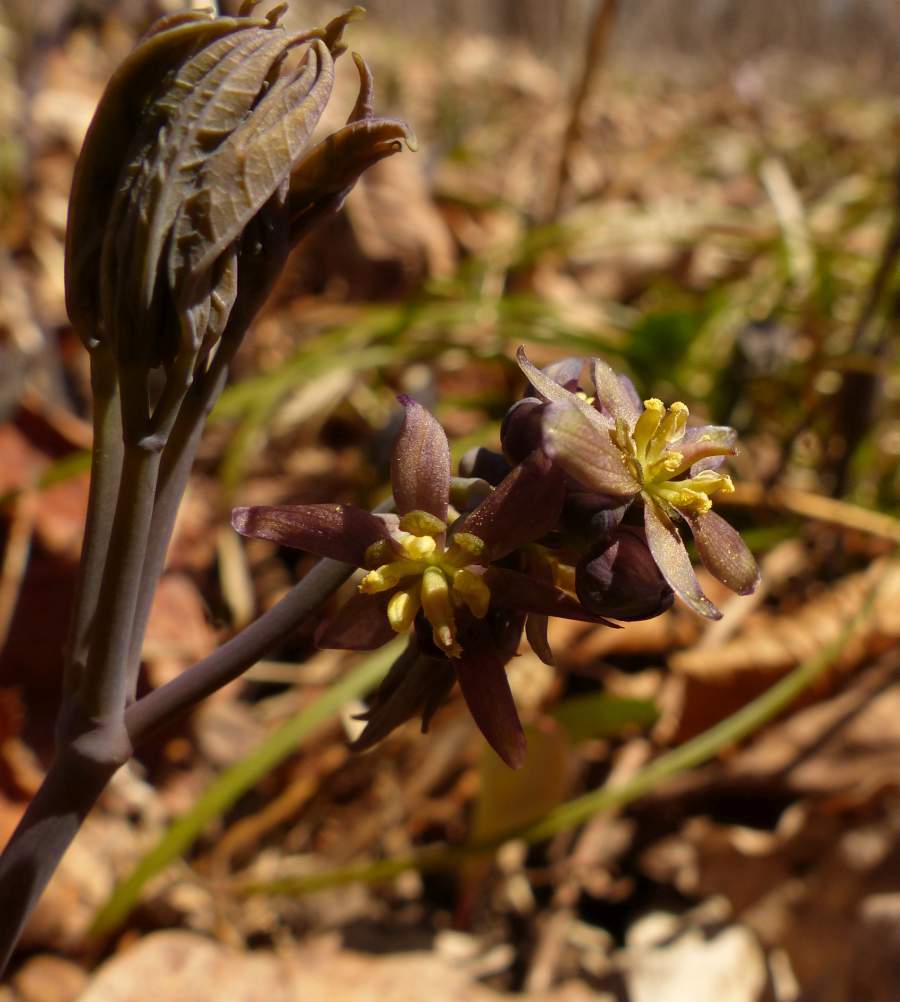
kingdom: Plantae
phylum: Tracheophyta
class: Magnoliopsida
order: Ranunculales
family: Berberidaceae
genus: Caulophyllum
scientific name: Caulophyllum giganteum
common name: Blue cohosh
